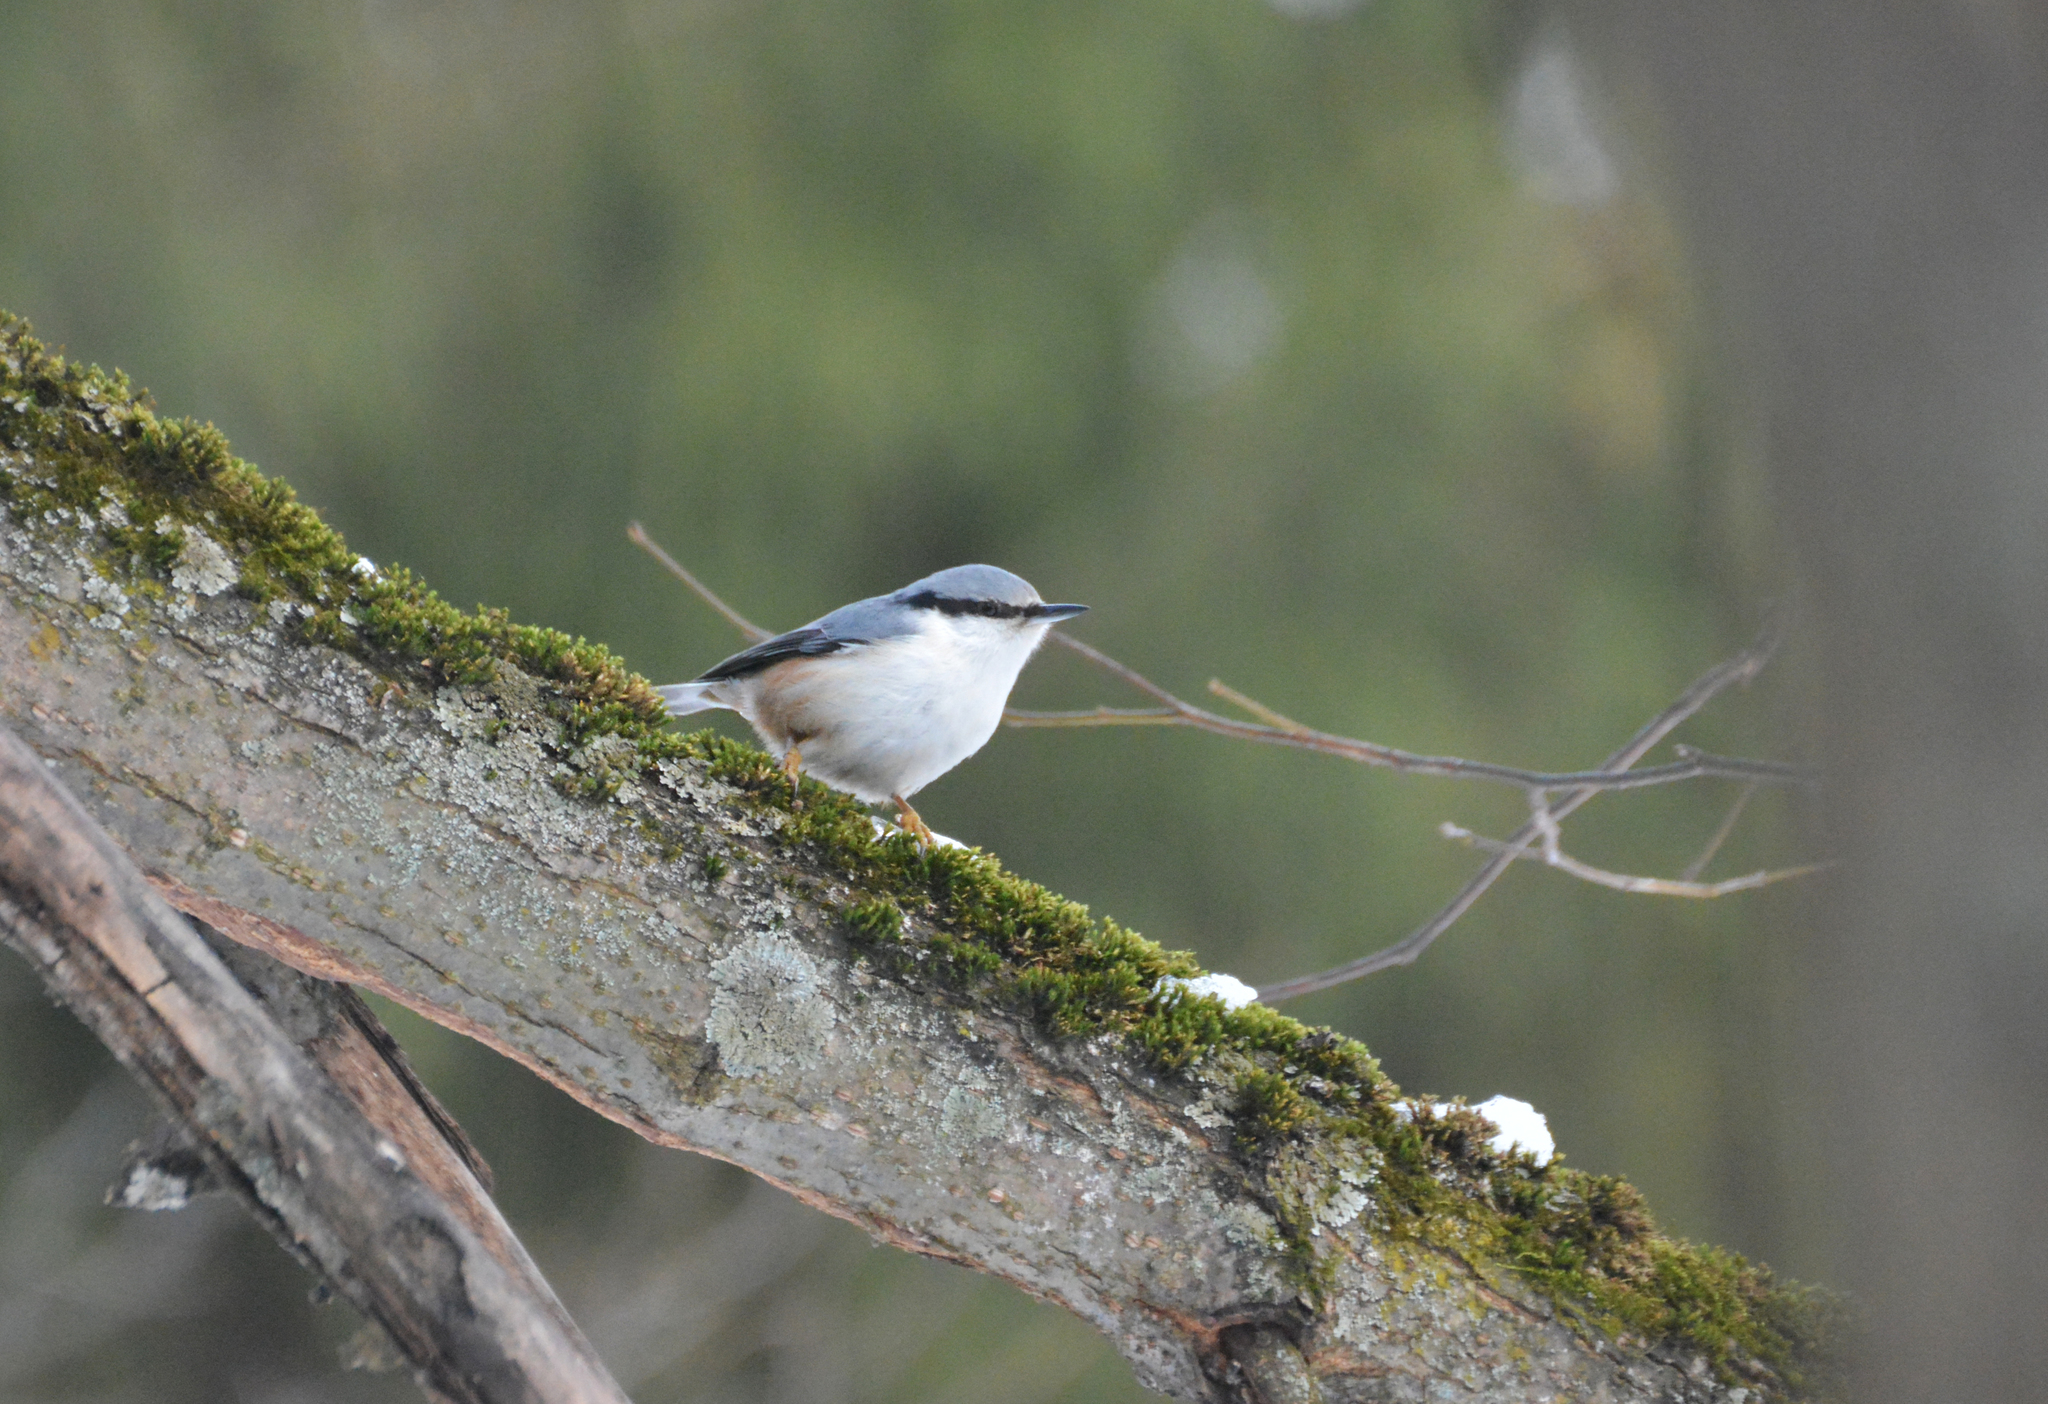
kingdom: Animalia
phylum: Chordata
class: Aves
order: Passeriformes
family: Sittidae
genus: Sitta
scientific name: Sitta europaea
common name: Eurasian nuthatch
